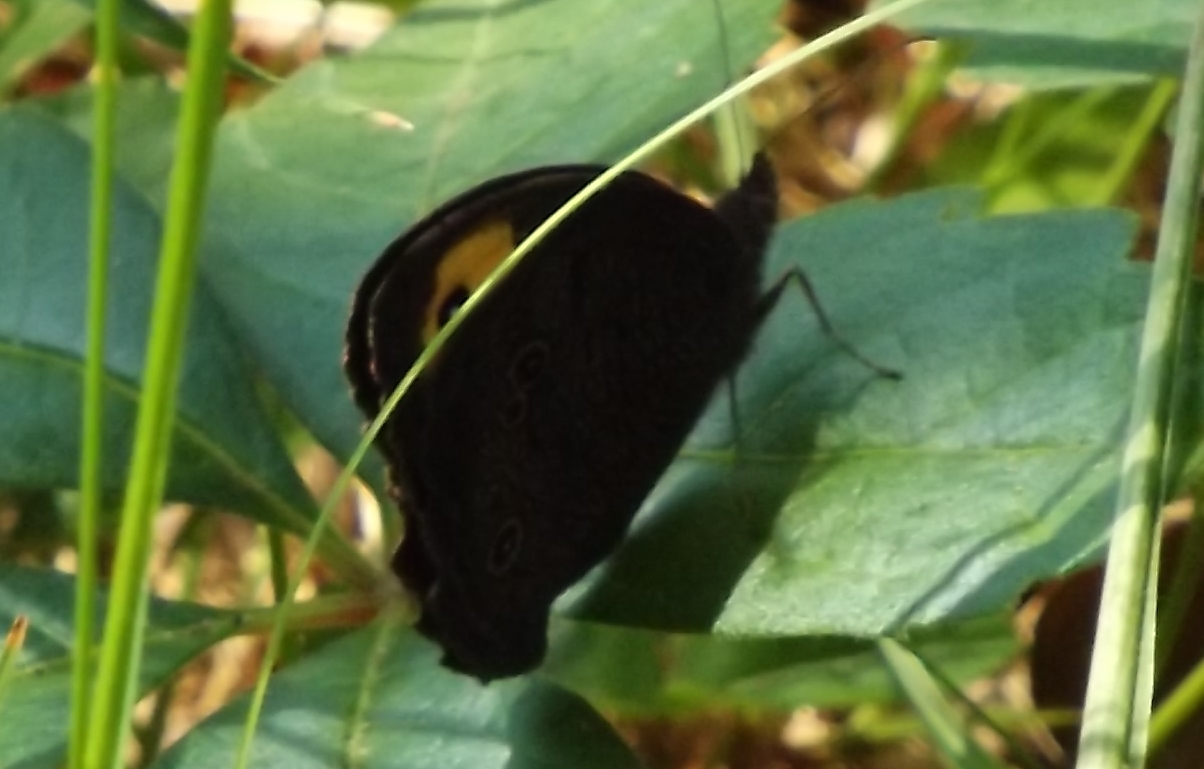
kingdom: Animalia
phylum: Arthropoda
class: Insecta
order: Lepidoptera
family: Nymphalidae
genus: Cercyonis
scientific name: Cercyonis pegala
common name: Common wood-nymph
